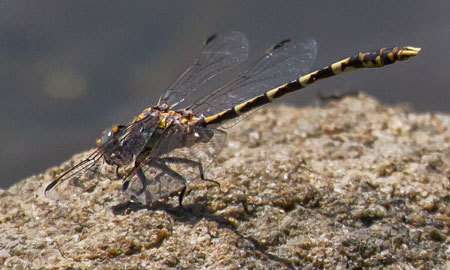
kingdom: Animalia
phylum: Arthropoda
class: Insecta
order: Odonata
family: Gomphidae
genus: Progomphus
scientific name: Progomphus borealis
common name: Gray sanddragon
